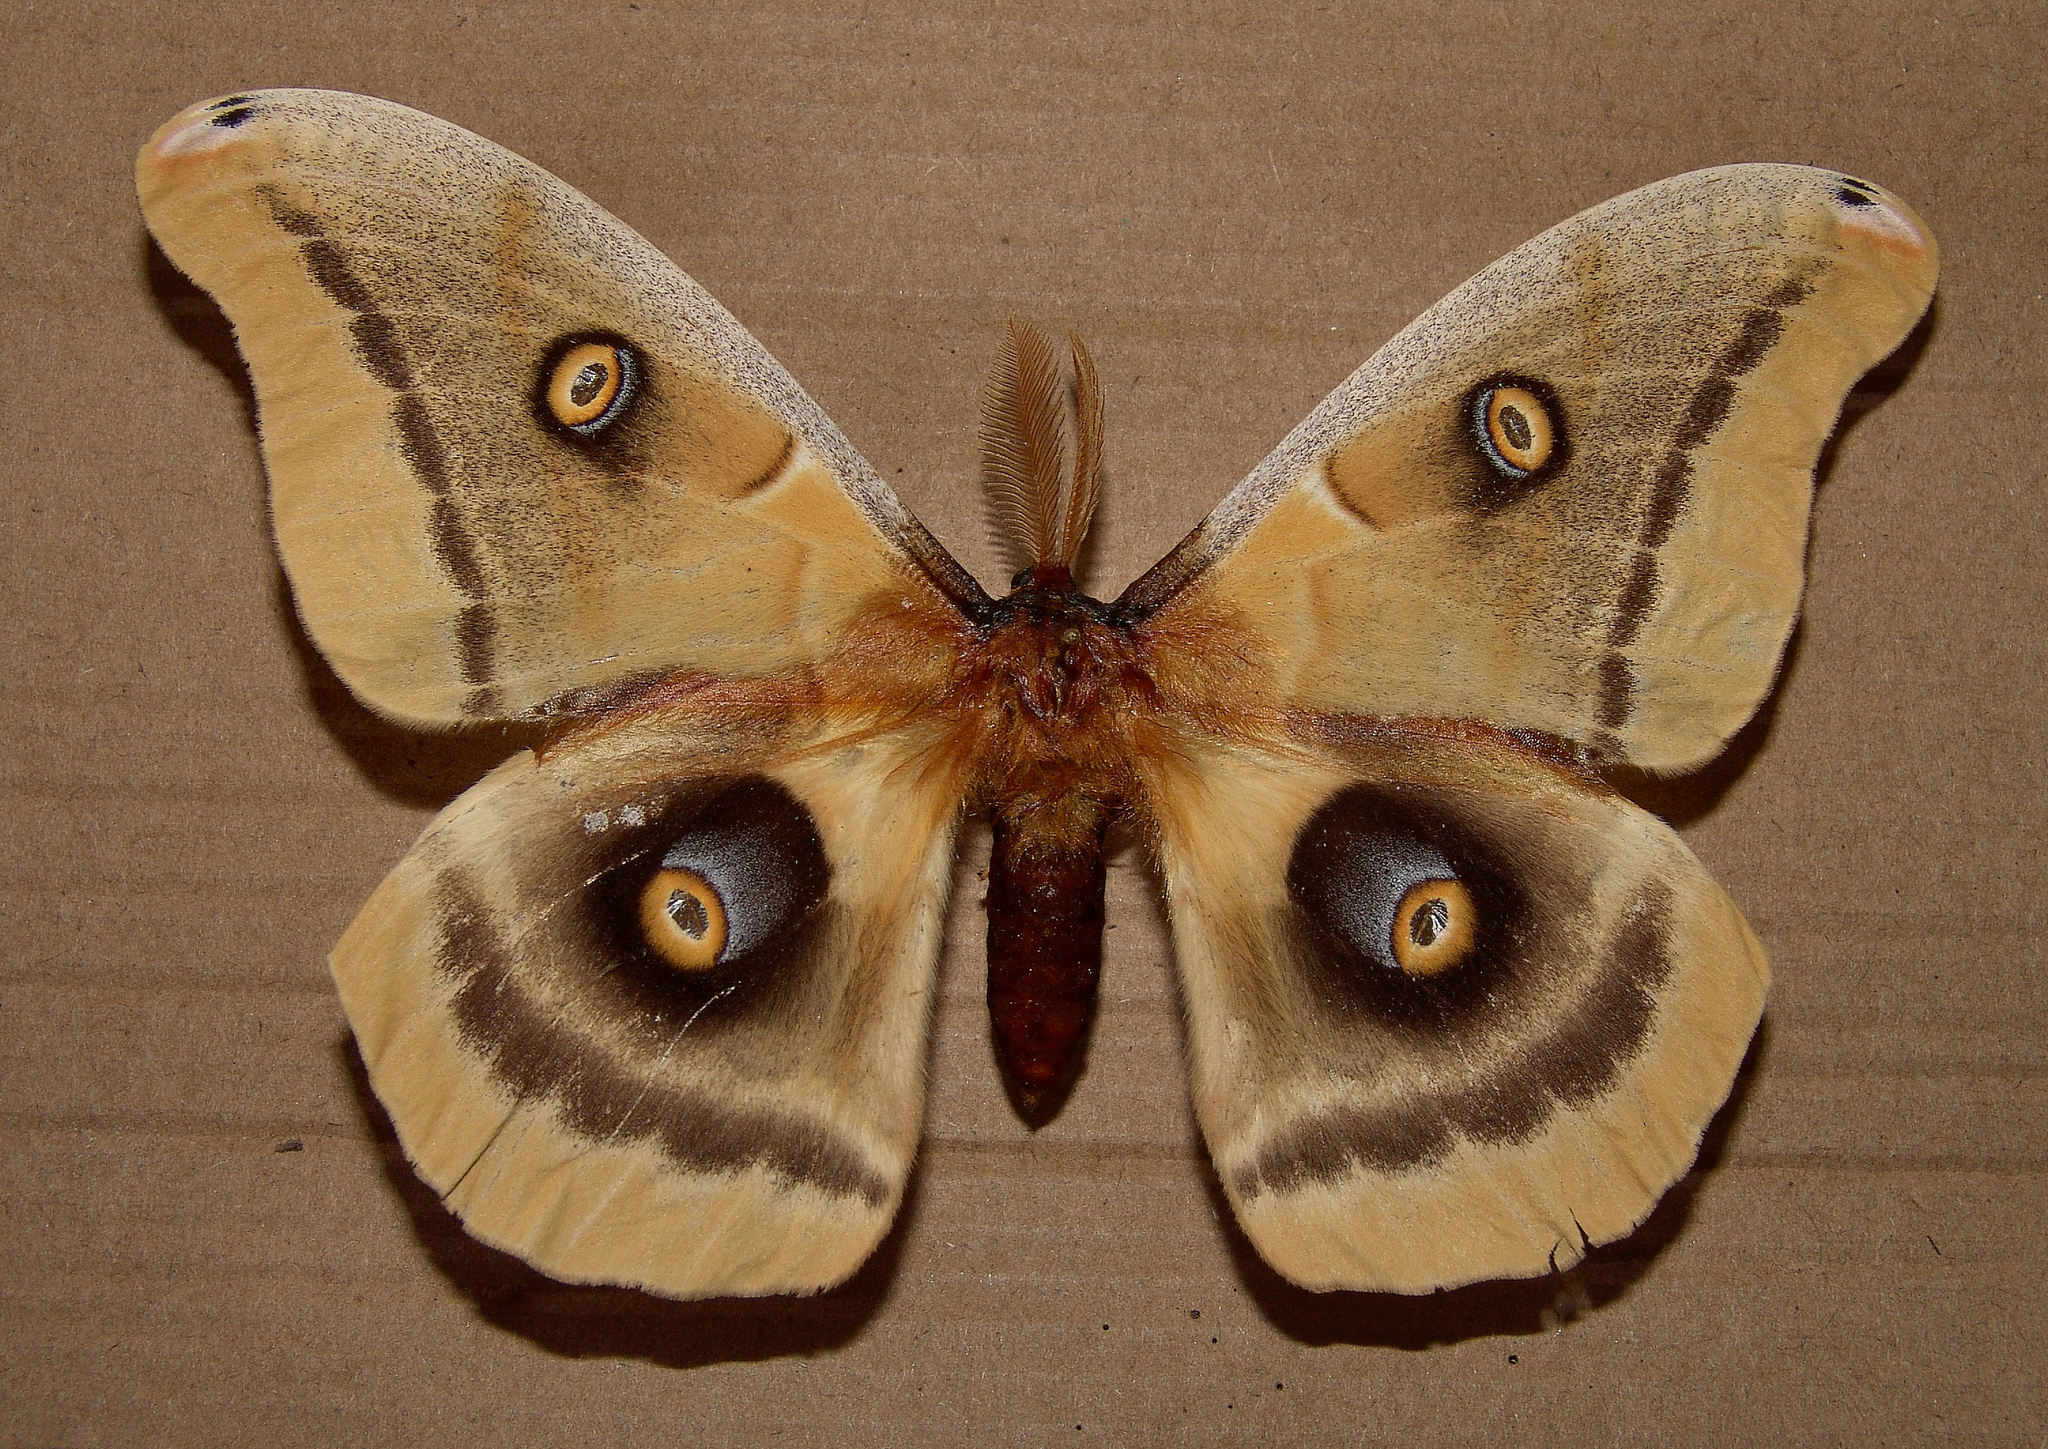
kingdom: Animalia
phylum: Arthropoda
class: Insecta
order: Lepidoptera
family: Saturniidae
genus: Antheraea
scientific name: Antheraea oculea
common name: Arizona polyphemus moth
